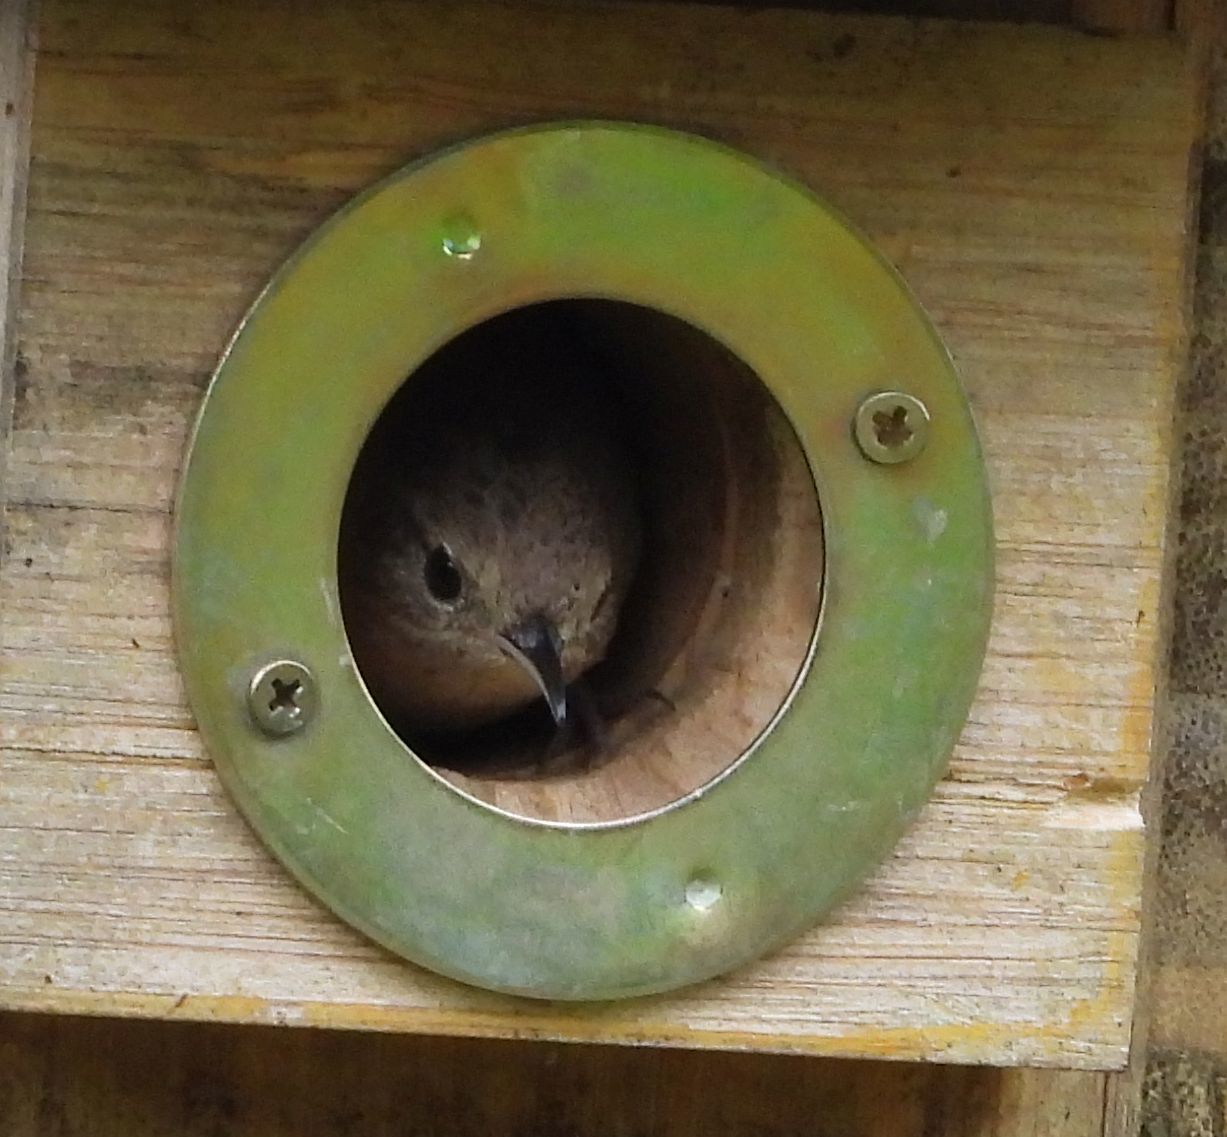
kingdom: Animalia
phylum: Chordata
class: Aves
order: Passeriformes
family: Troglodytidae
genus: Troglodytes
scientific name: Troglodytes aedon
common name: House wren
